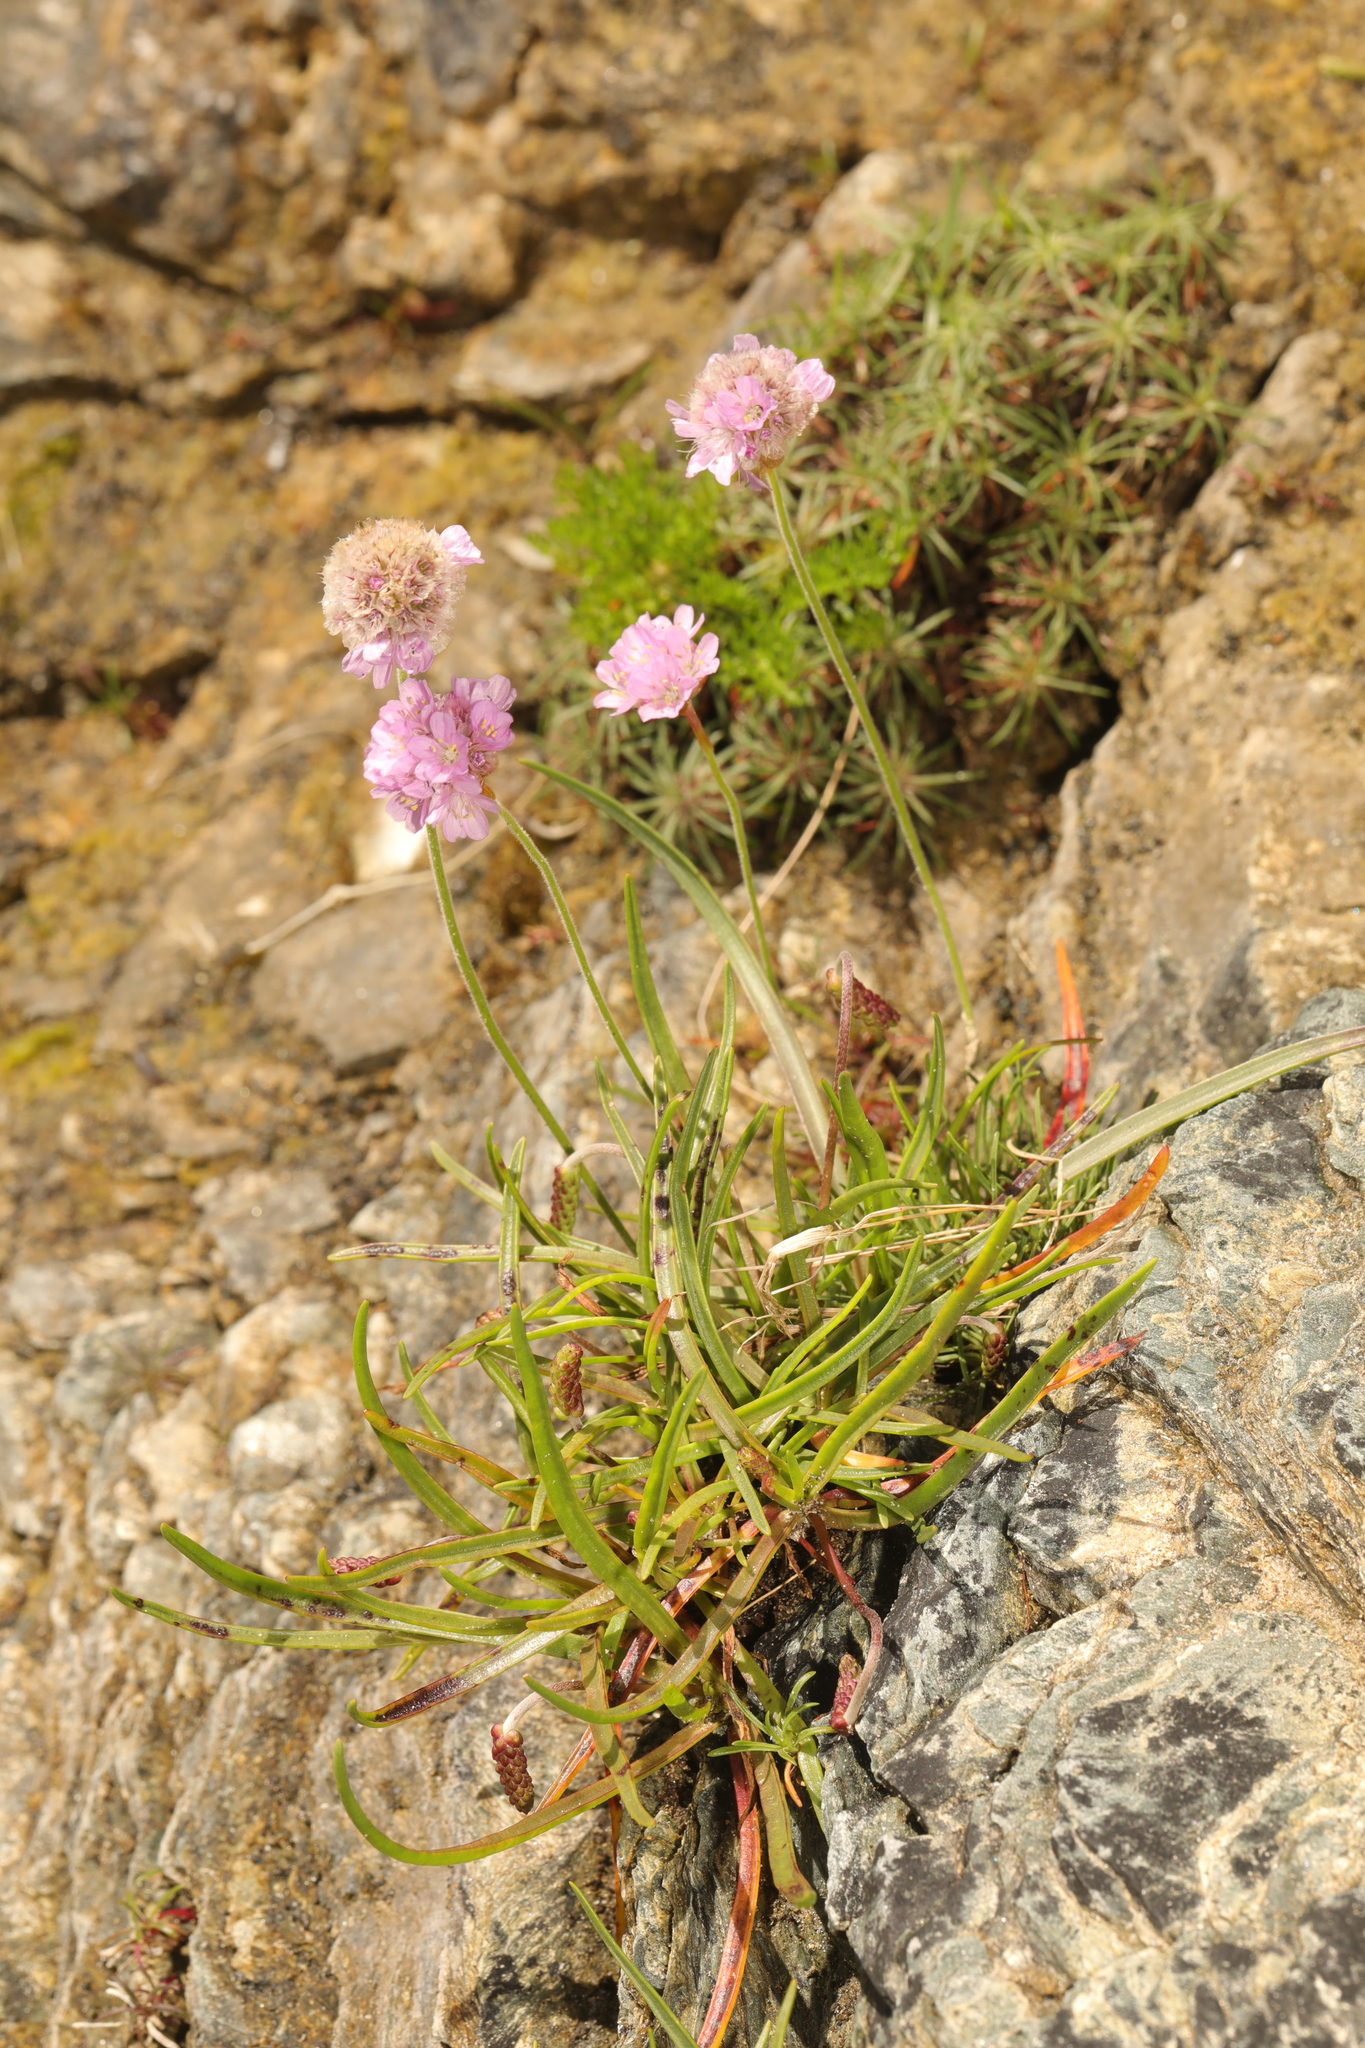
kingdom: Plantae
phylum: Tracheophyta
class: Magnoliopsida
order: Caryophyllales
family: Plumbaginaceae
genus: Armeria
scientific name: Armeria maritima
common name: Thrift
